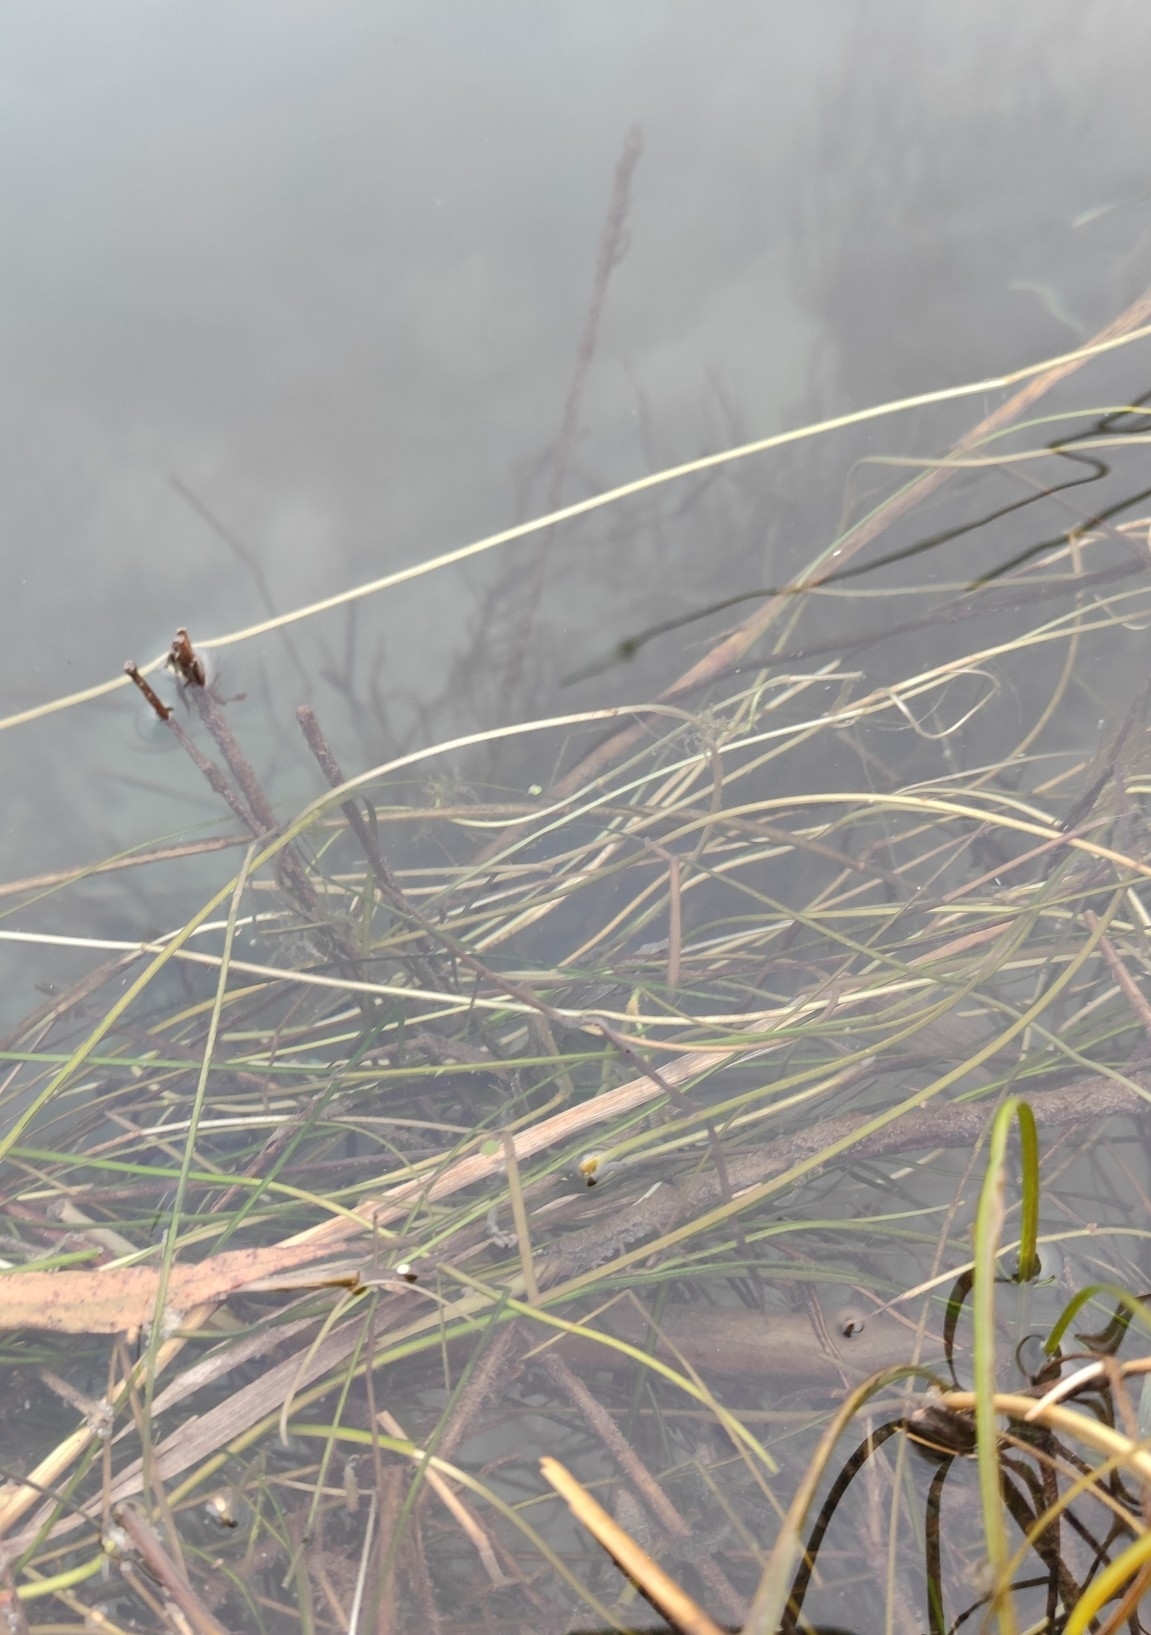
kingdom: Plantae
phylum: Tracheophyta
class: Liliopsida
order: Alismatales
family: Potamogetonaceae
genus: Stuckenia
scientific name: Stuckenia pectinata
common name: Sago pondweed
